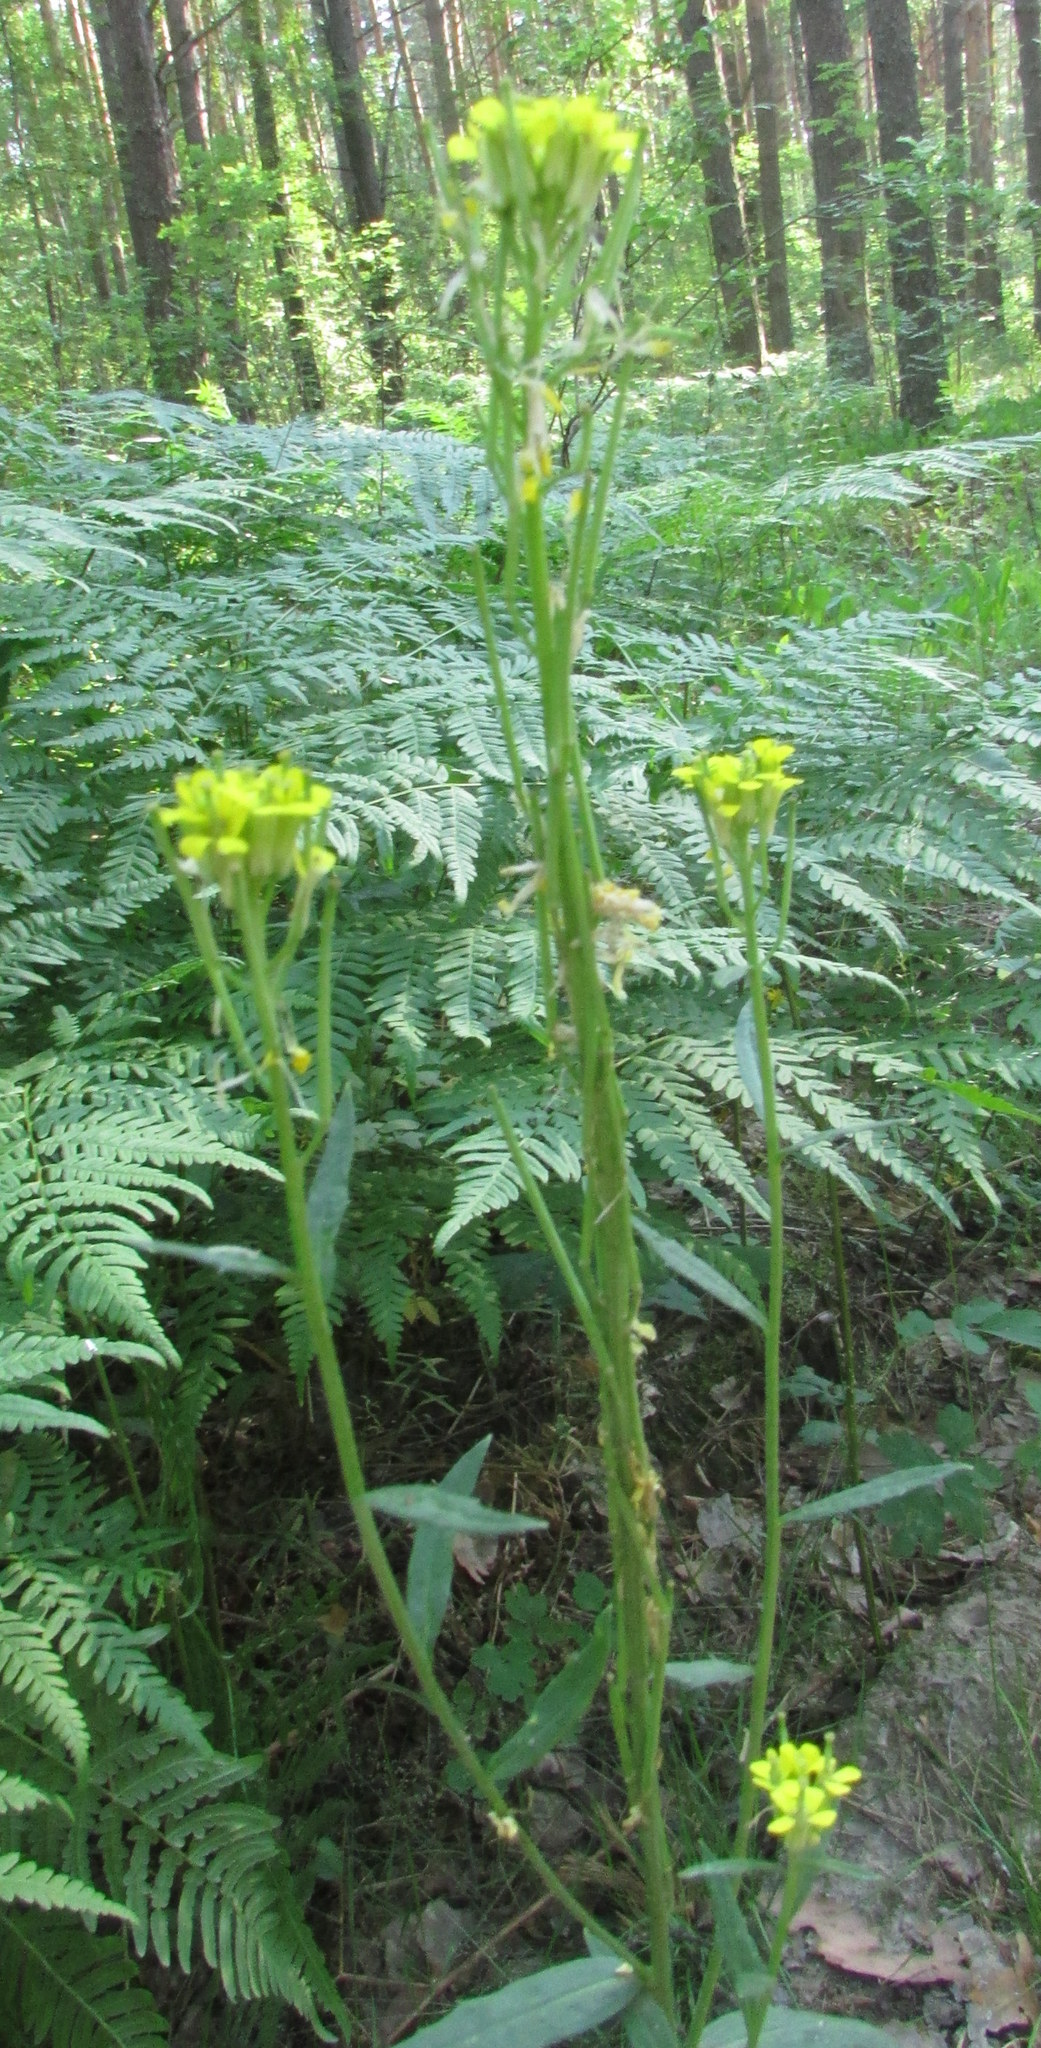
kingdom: Plantae
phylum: Tracheophyta
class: Magnoliopsida
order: Brassicales
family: Brassicaceae
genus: Erysimum
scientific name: Erysimum hieraciifolium
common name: European wallflower
